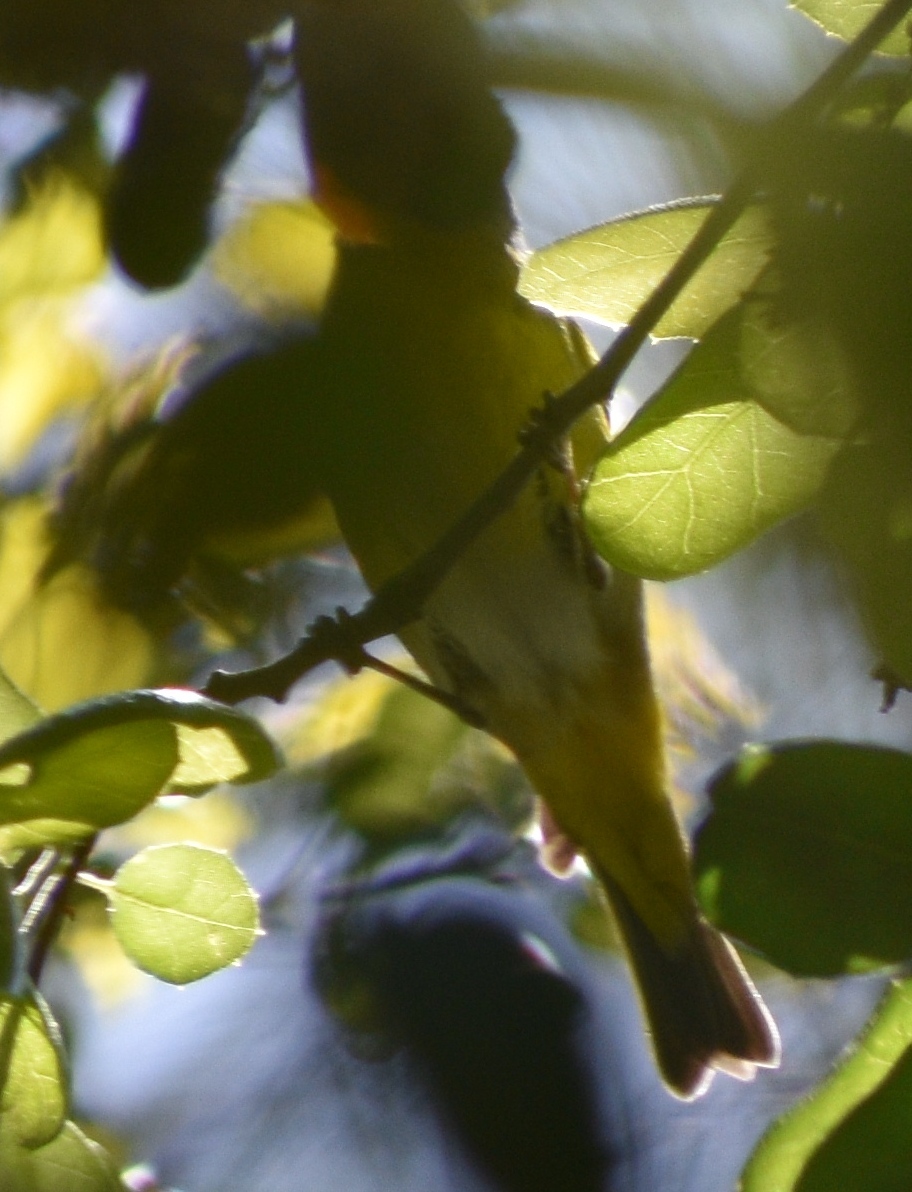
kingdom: Animalia
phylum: Chordata
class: Aves
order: Passeriformes
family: Parulidae
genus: Leiothlypis
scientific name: Leiothlypis ruficapilla
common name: Nashville warbler
